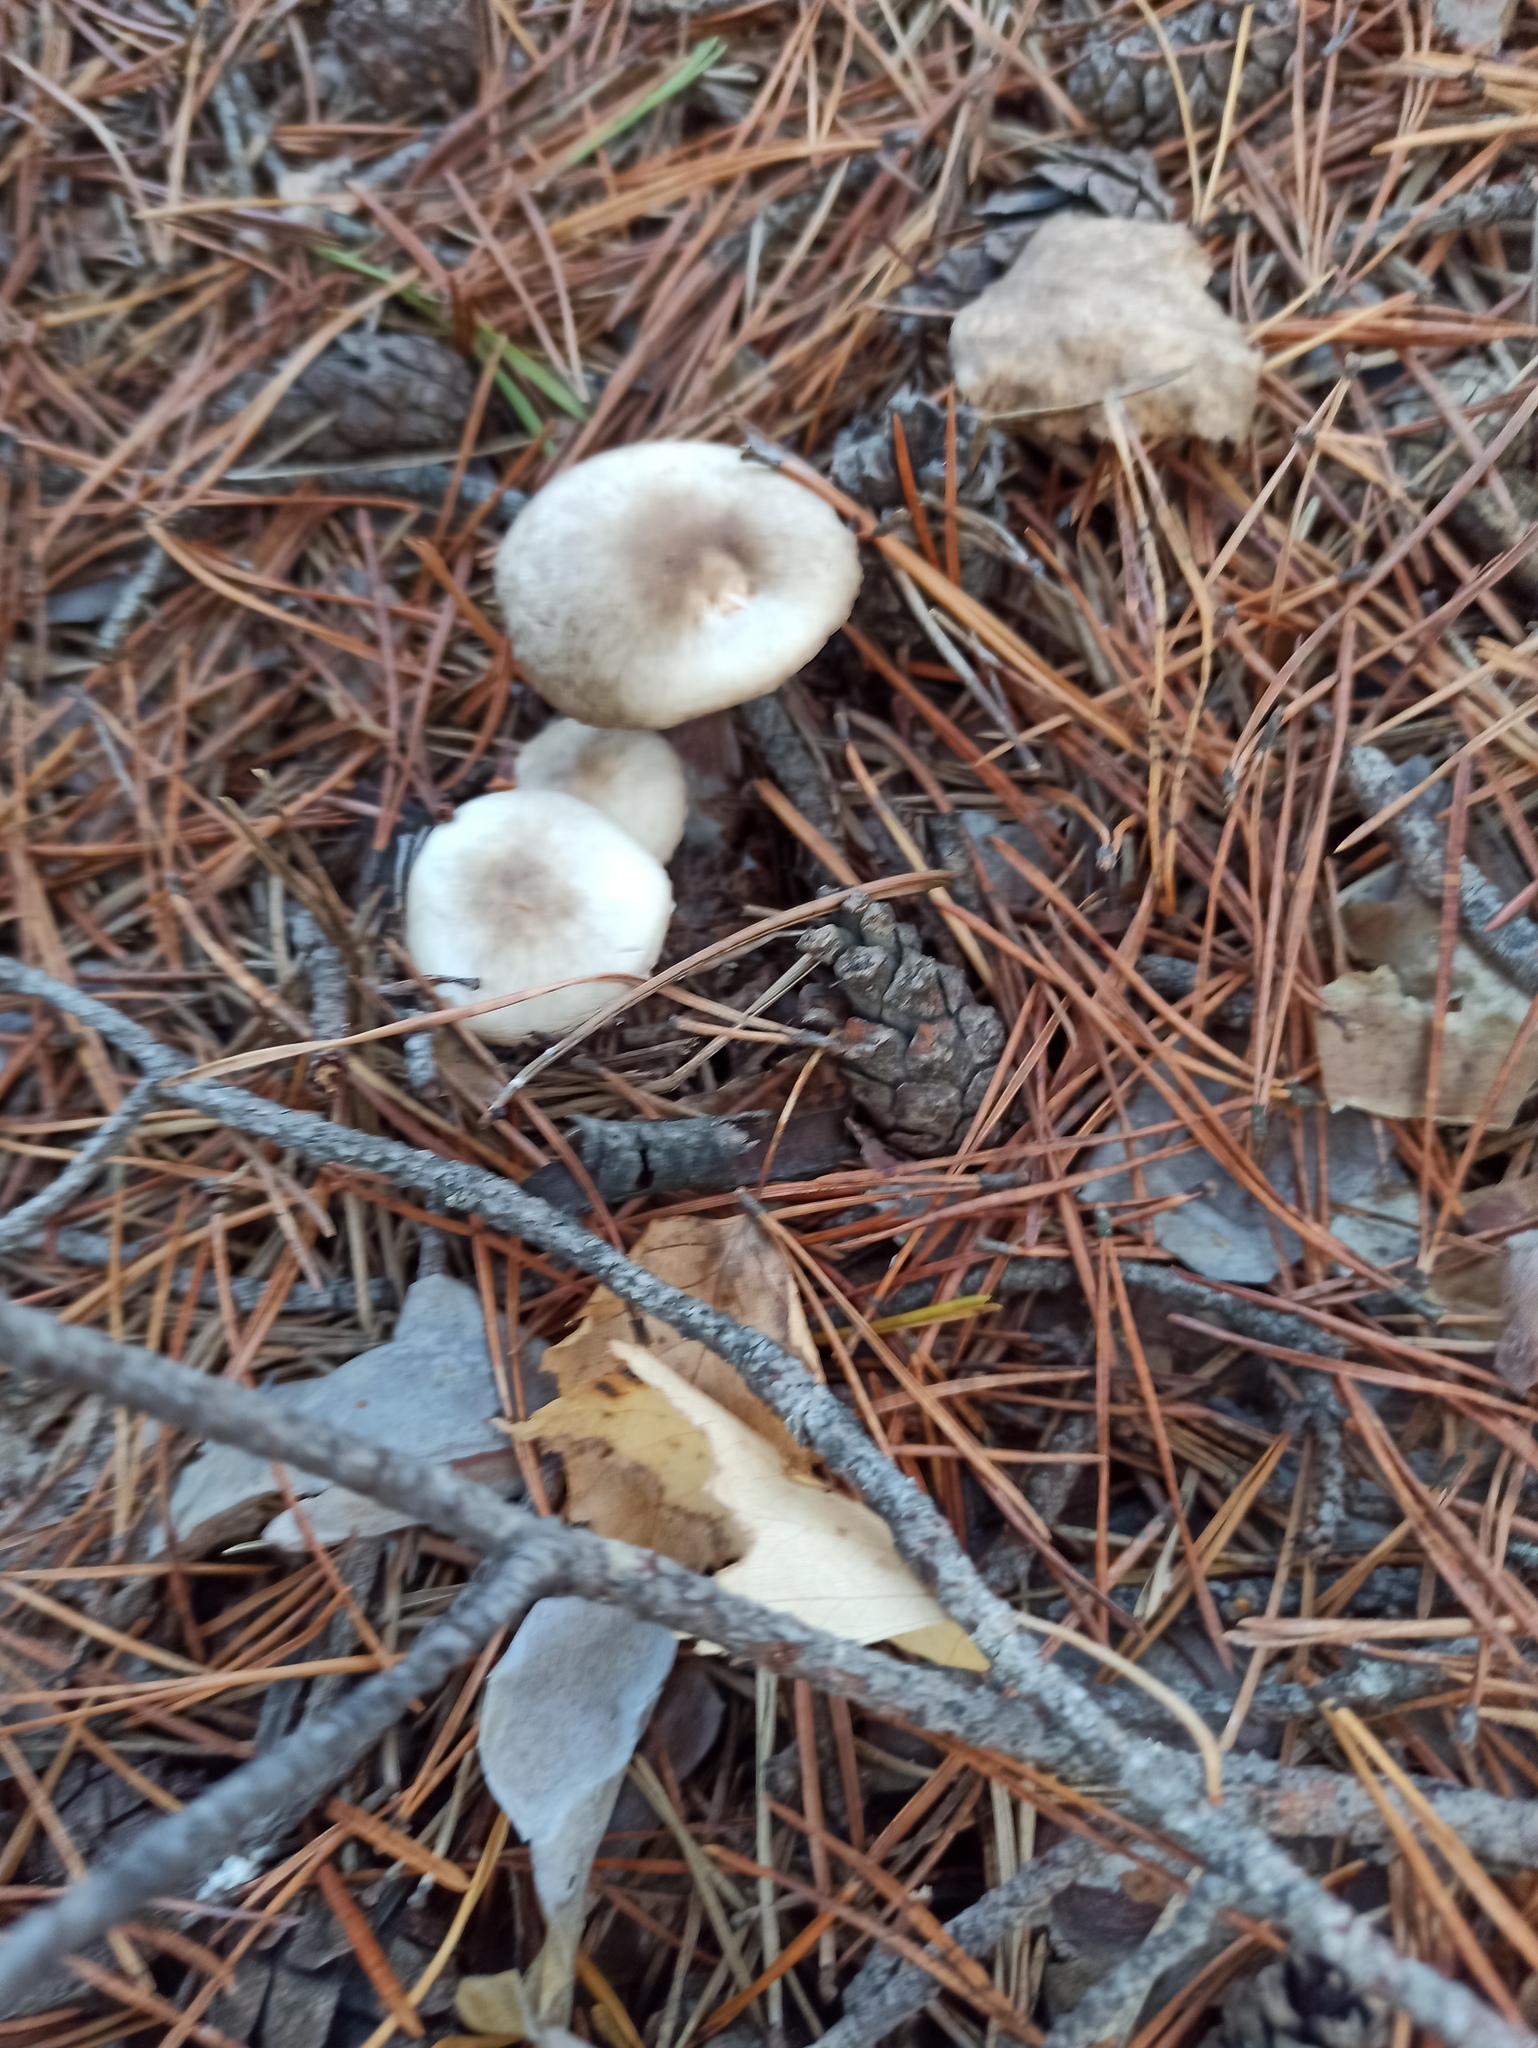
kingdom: Fungi
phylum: Basidiomycota
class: Agaricomycetes
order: Agaricales
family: Omphalotaceae
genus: Rhodocollybia
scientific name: Rhodocollybia asema
